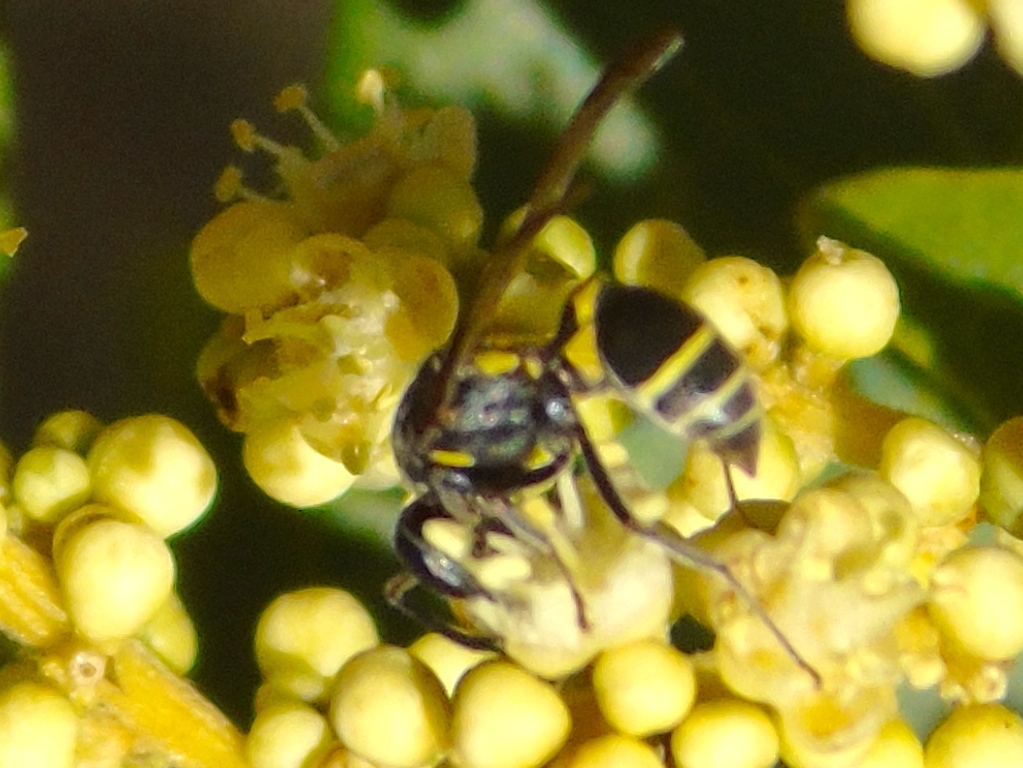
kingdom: Animalia
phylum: Arthropoda
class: Insecta
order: Hymenoptera
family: Vespidae
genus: Myrapetra
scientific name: Myrapetra
